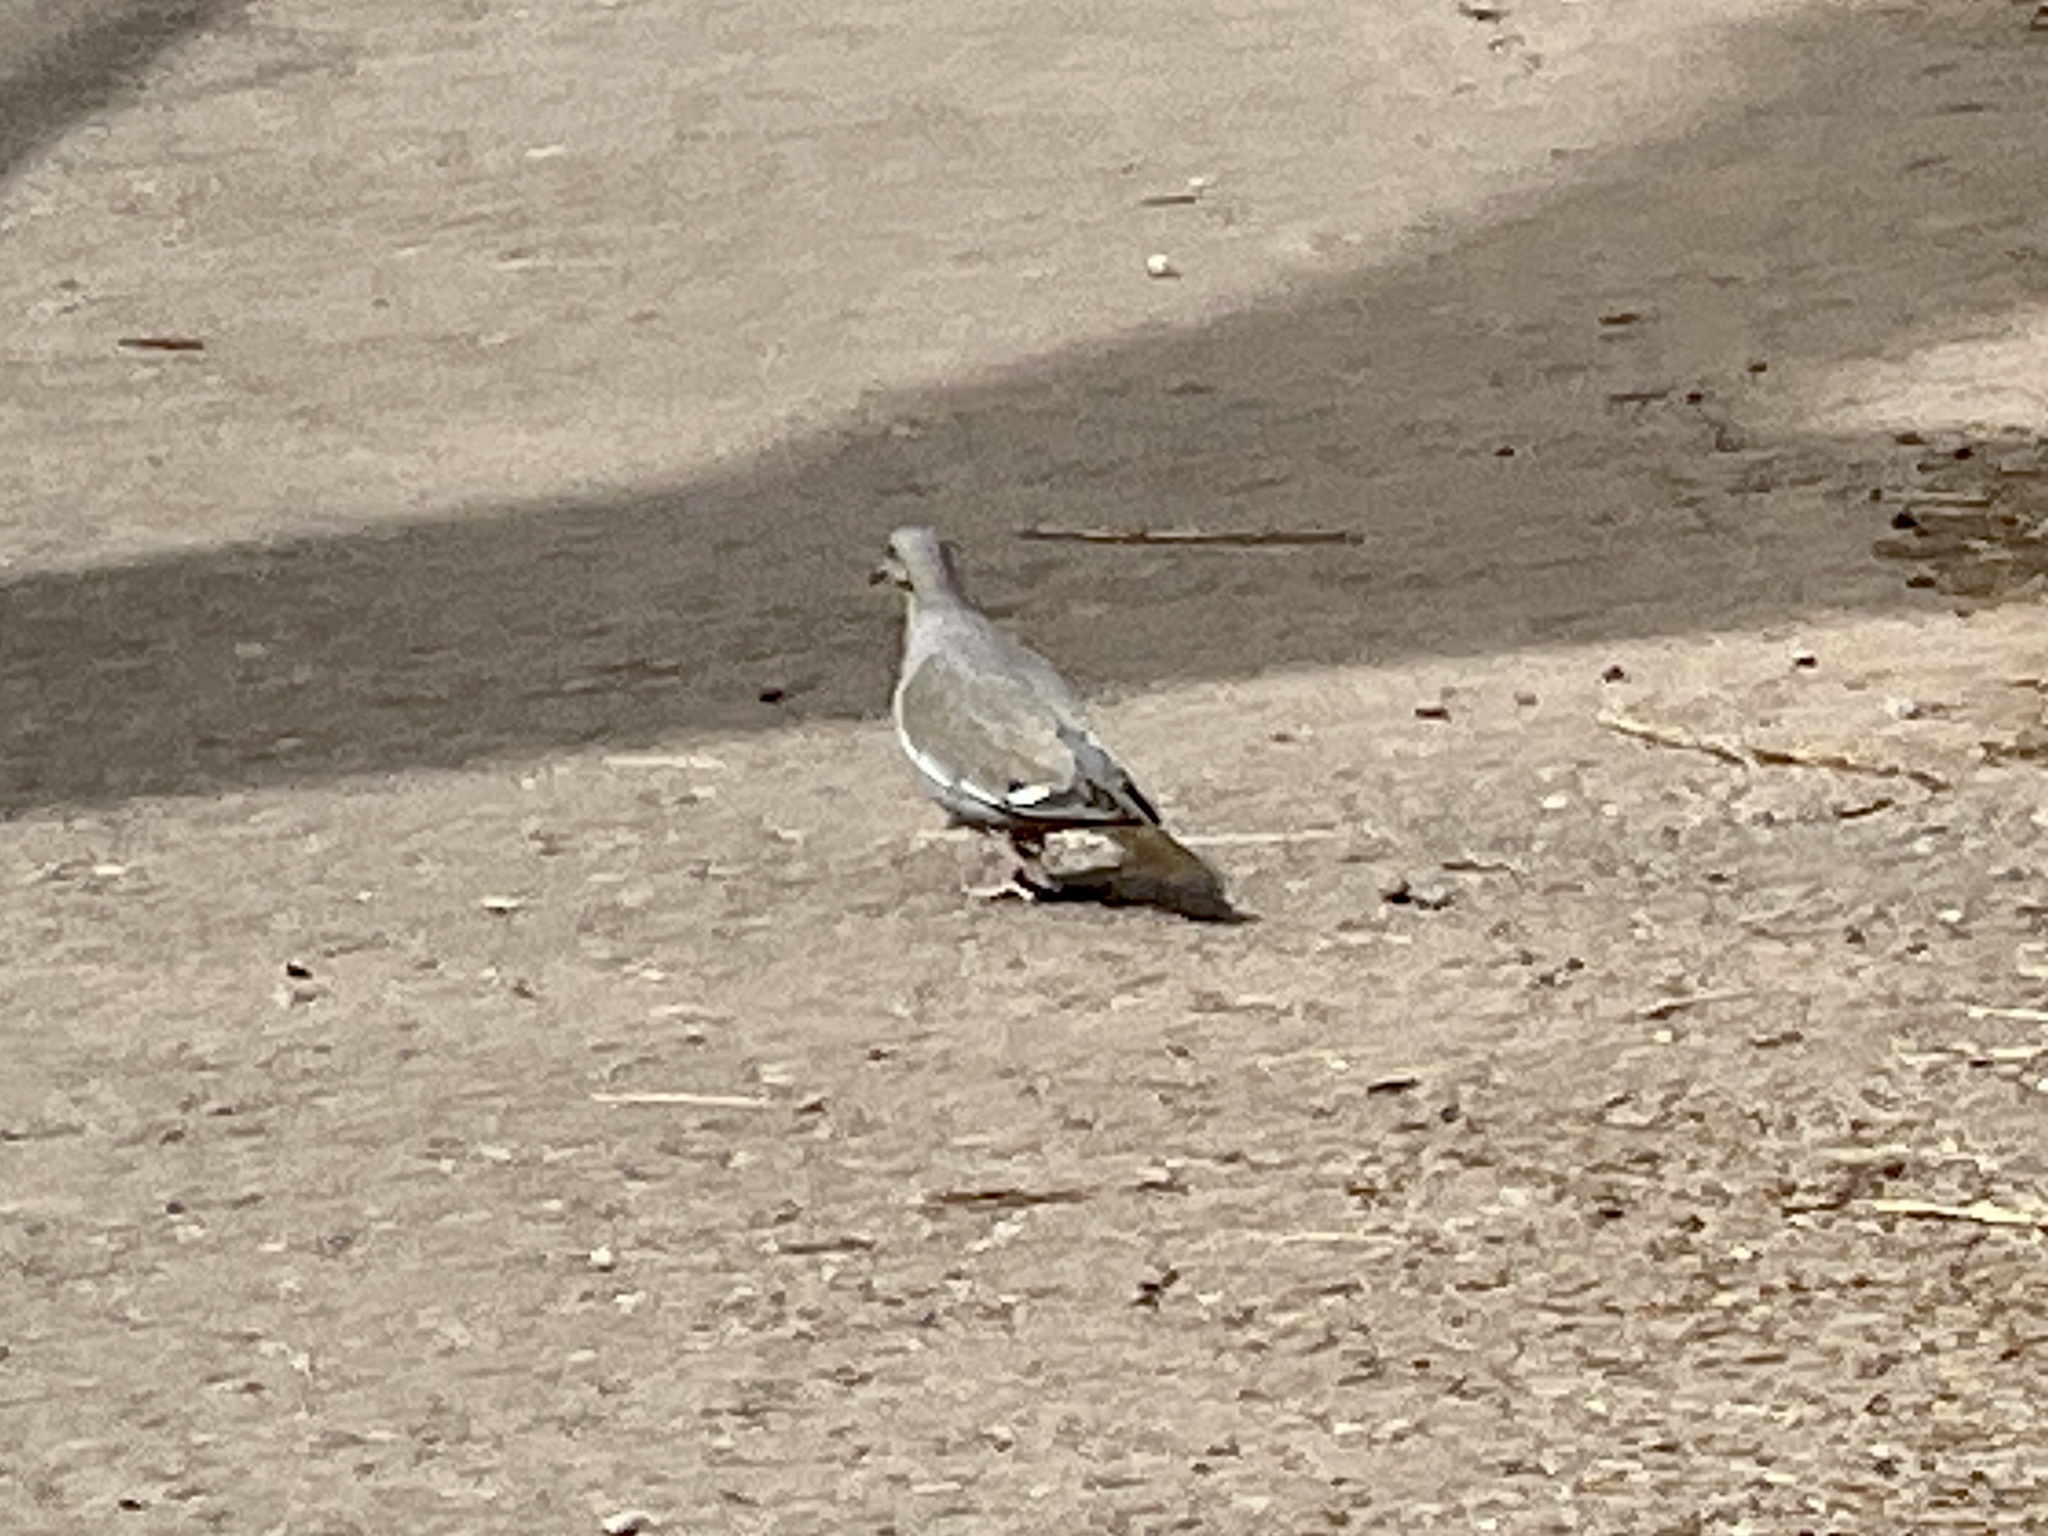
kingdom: Animalia
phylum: Chordata
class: Aves
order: Columbiformes
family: Columbidae
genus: Zenaida
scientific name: Zenaida asiatica
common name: White-winged dove
